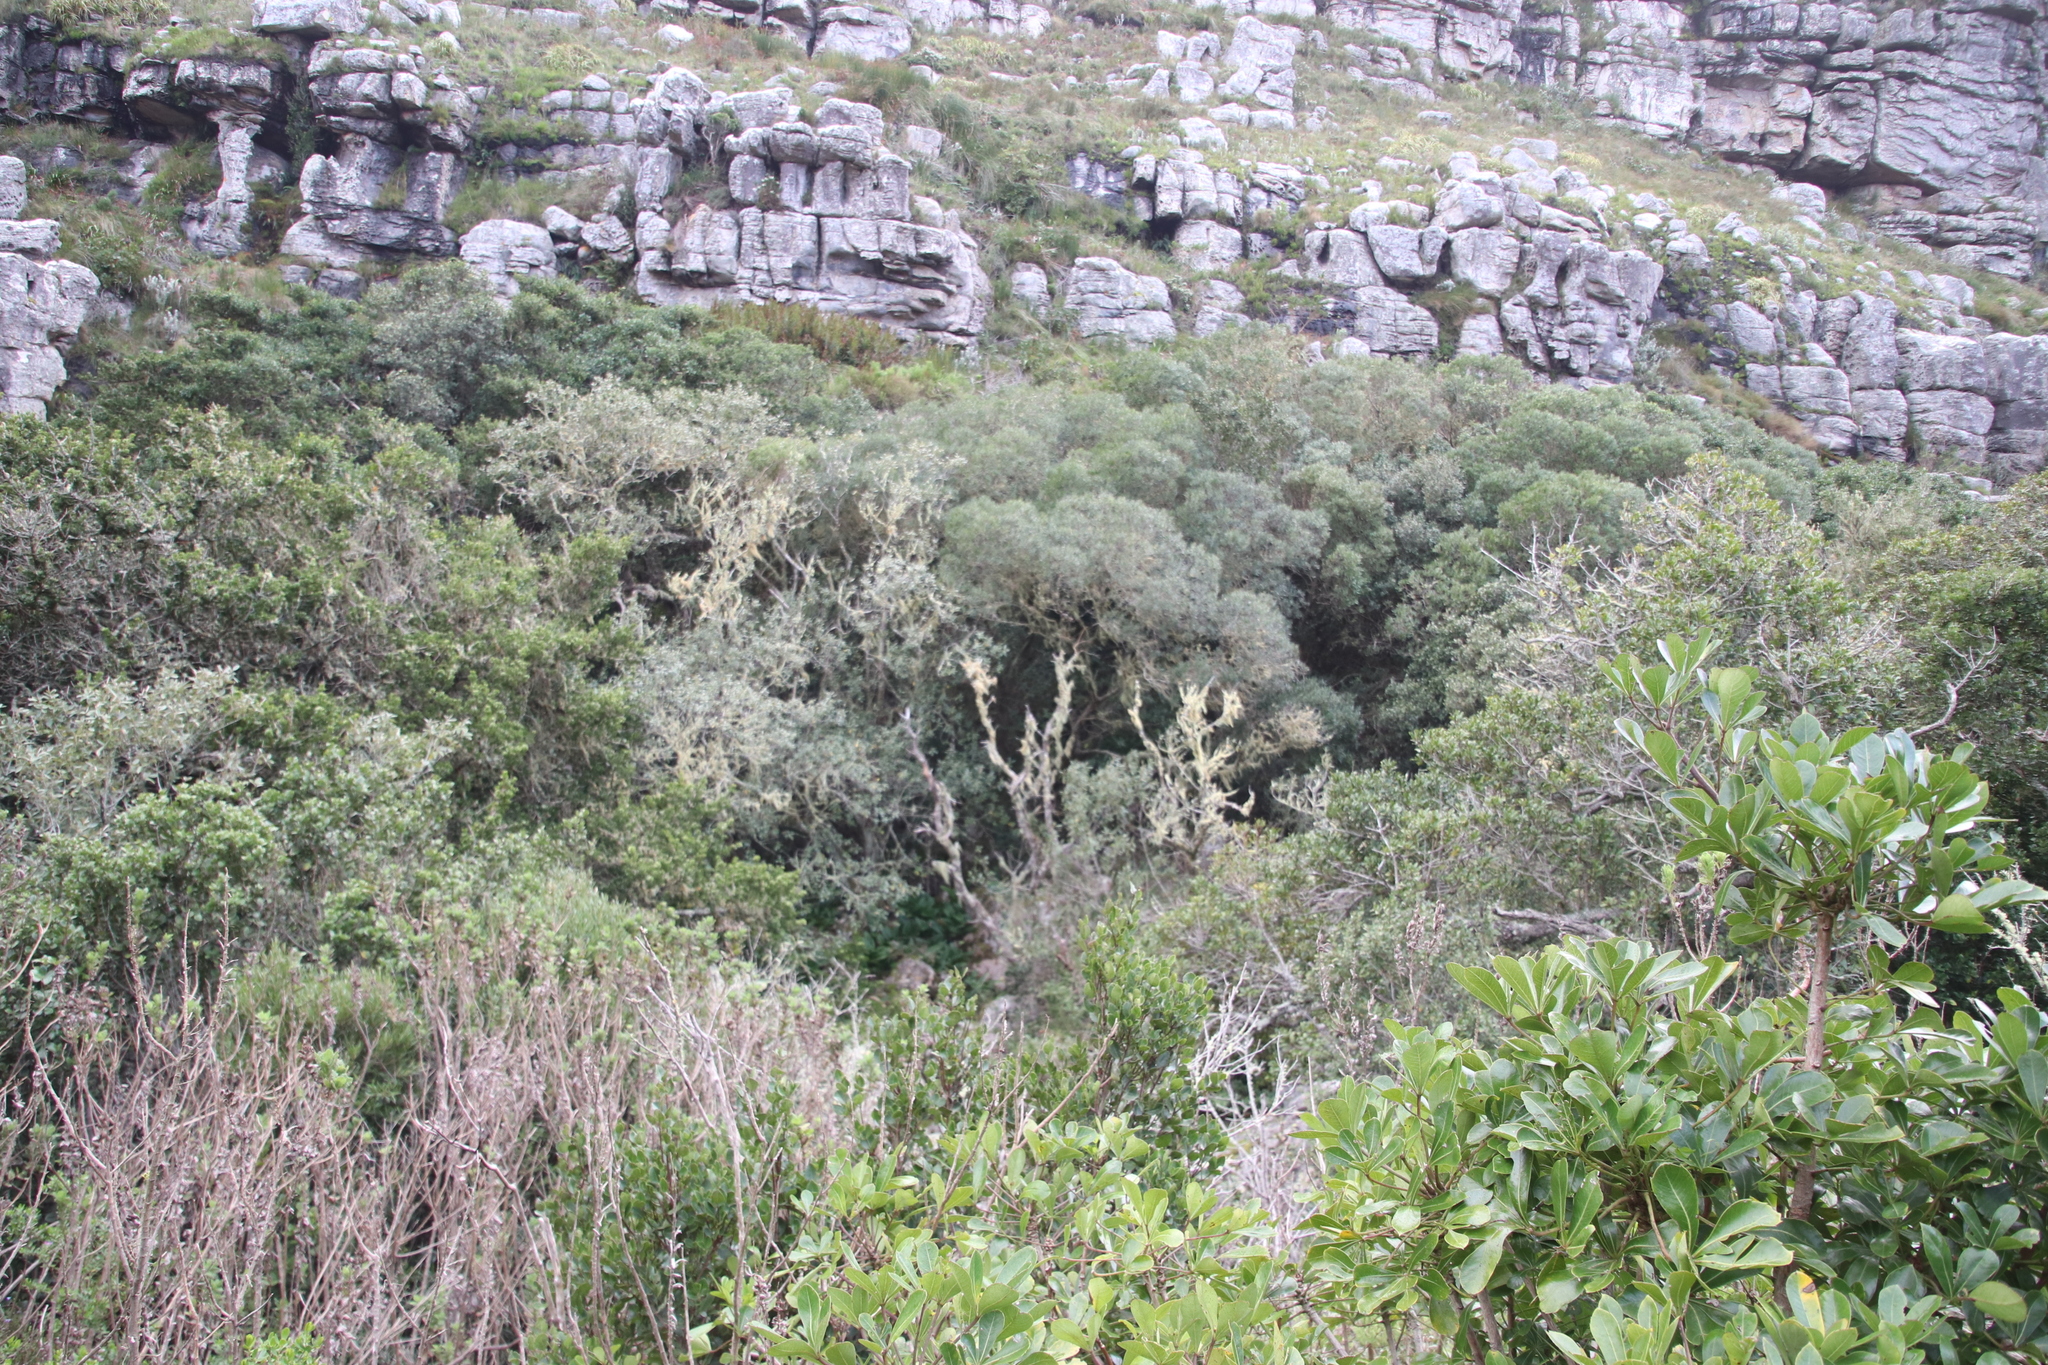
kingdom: Plantae
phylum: Tracheophyta
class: Magnoliopsida
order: Lamiales
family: Oleaceae
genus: Olea
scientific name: Olea europaea
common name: Olive
